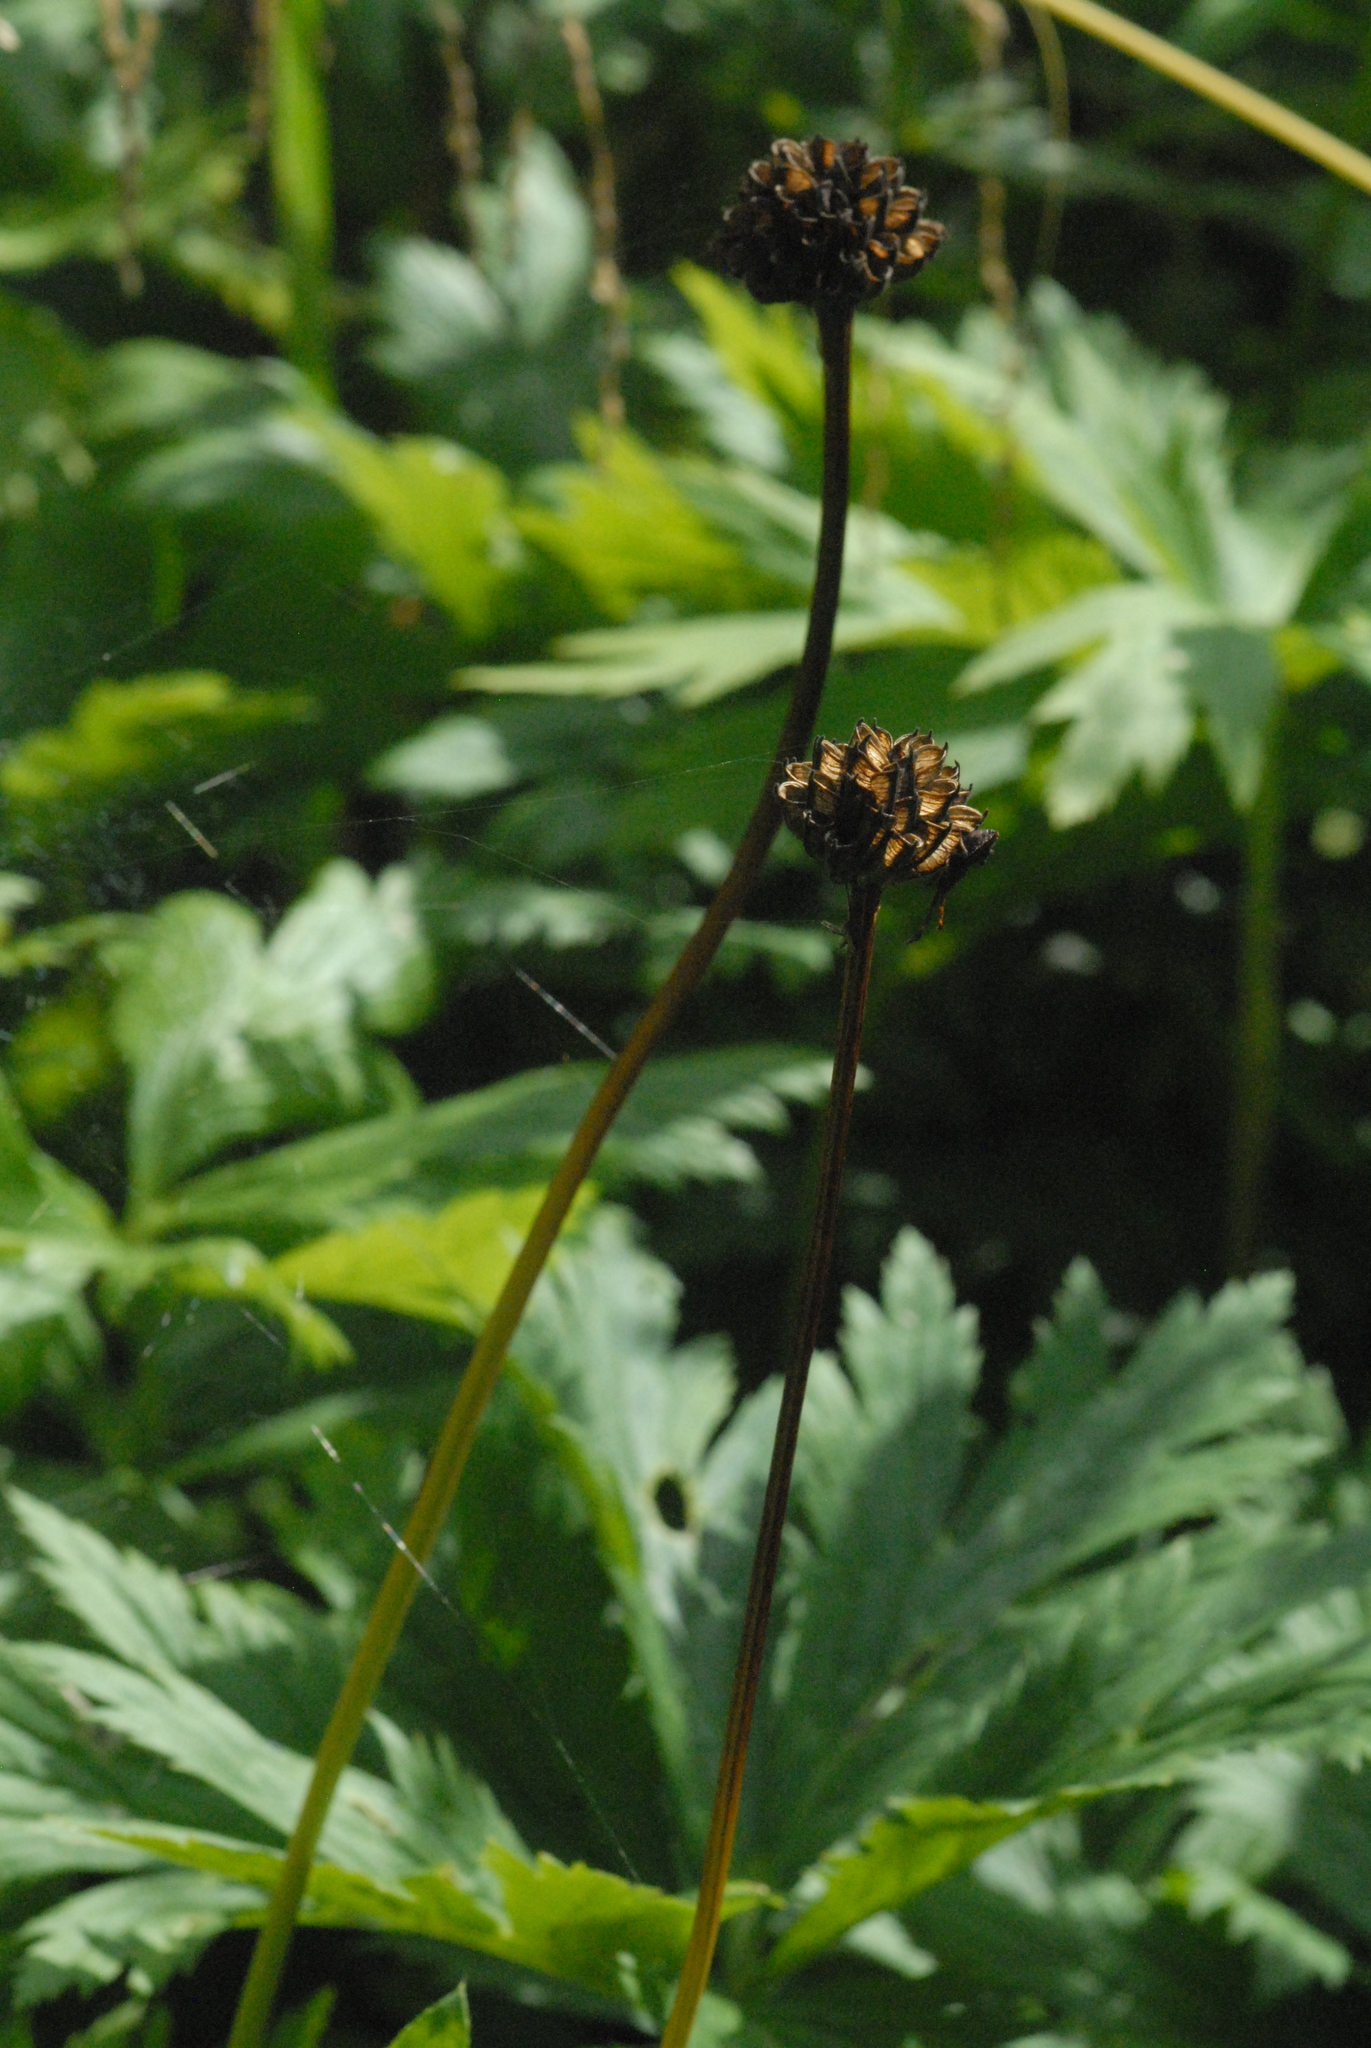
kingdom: Plantae
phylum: Tracheophyta
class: Magnoliopsida
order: Ranunculales
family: Ranunculaceae
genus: Trollius
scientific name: Trollius europaeus
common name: European globeflower
